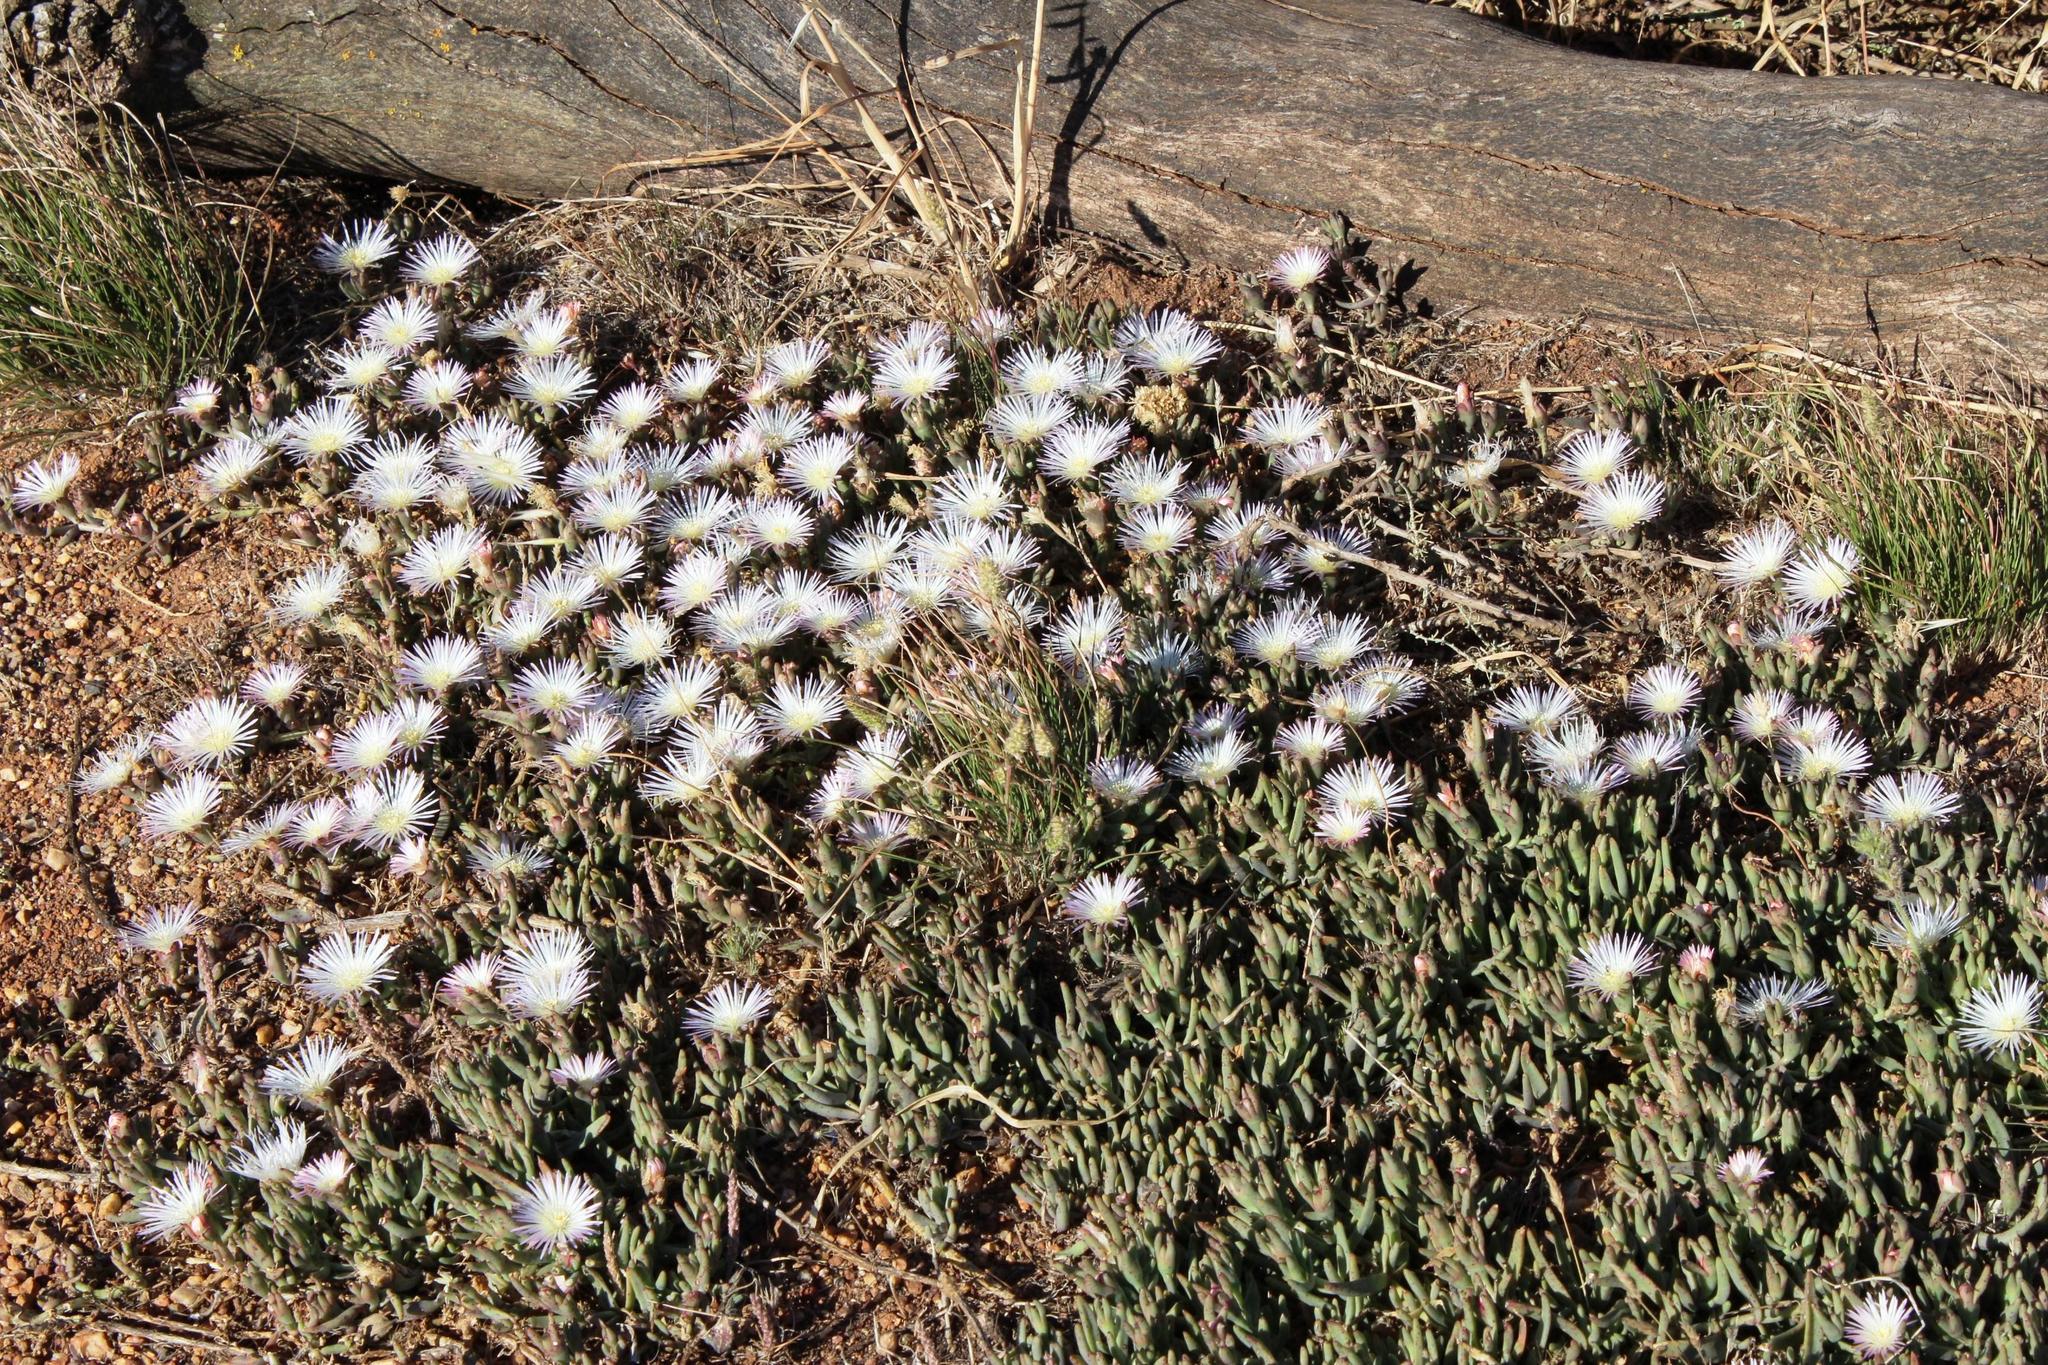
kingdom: Plantae
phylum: Tracheophyta
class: Magnoliopsida
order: Caryophyllales
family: Aizoaceae
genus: Mesembryanthemum
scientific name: Mesembryanthemum pallens
